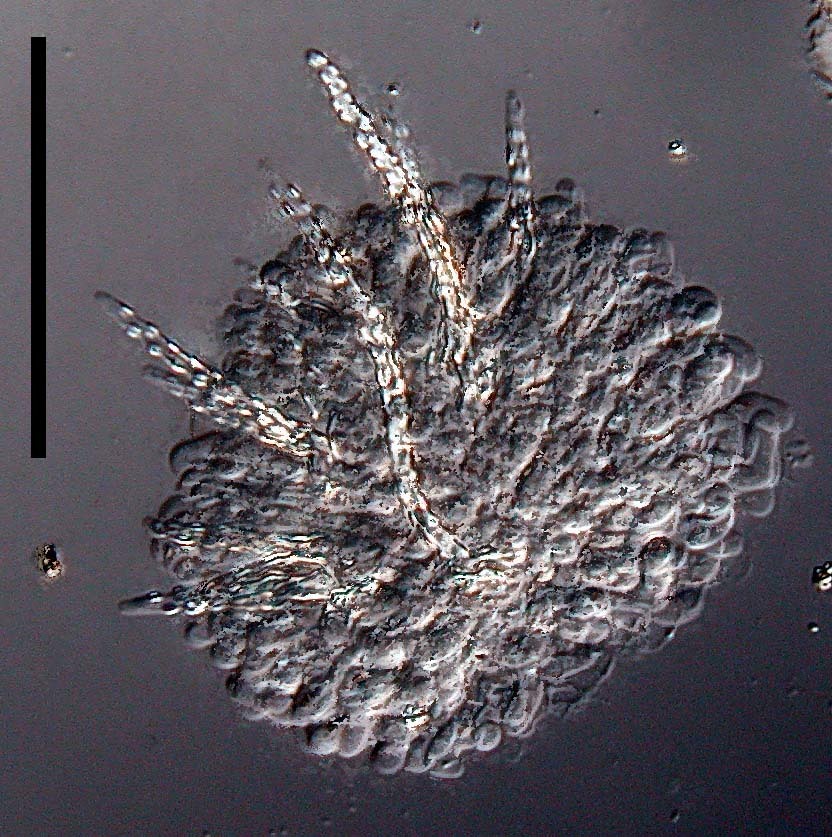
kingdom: Fungi
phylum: Basidiomycota
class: Agaricomycetes
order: Trechisporales
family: Hydnodontaceae
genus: Subulicystidium
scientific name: Subulicystidium longisporum
